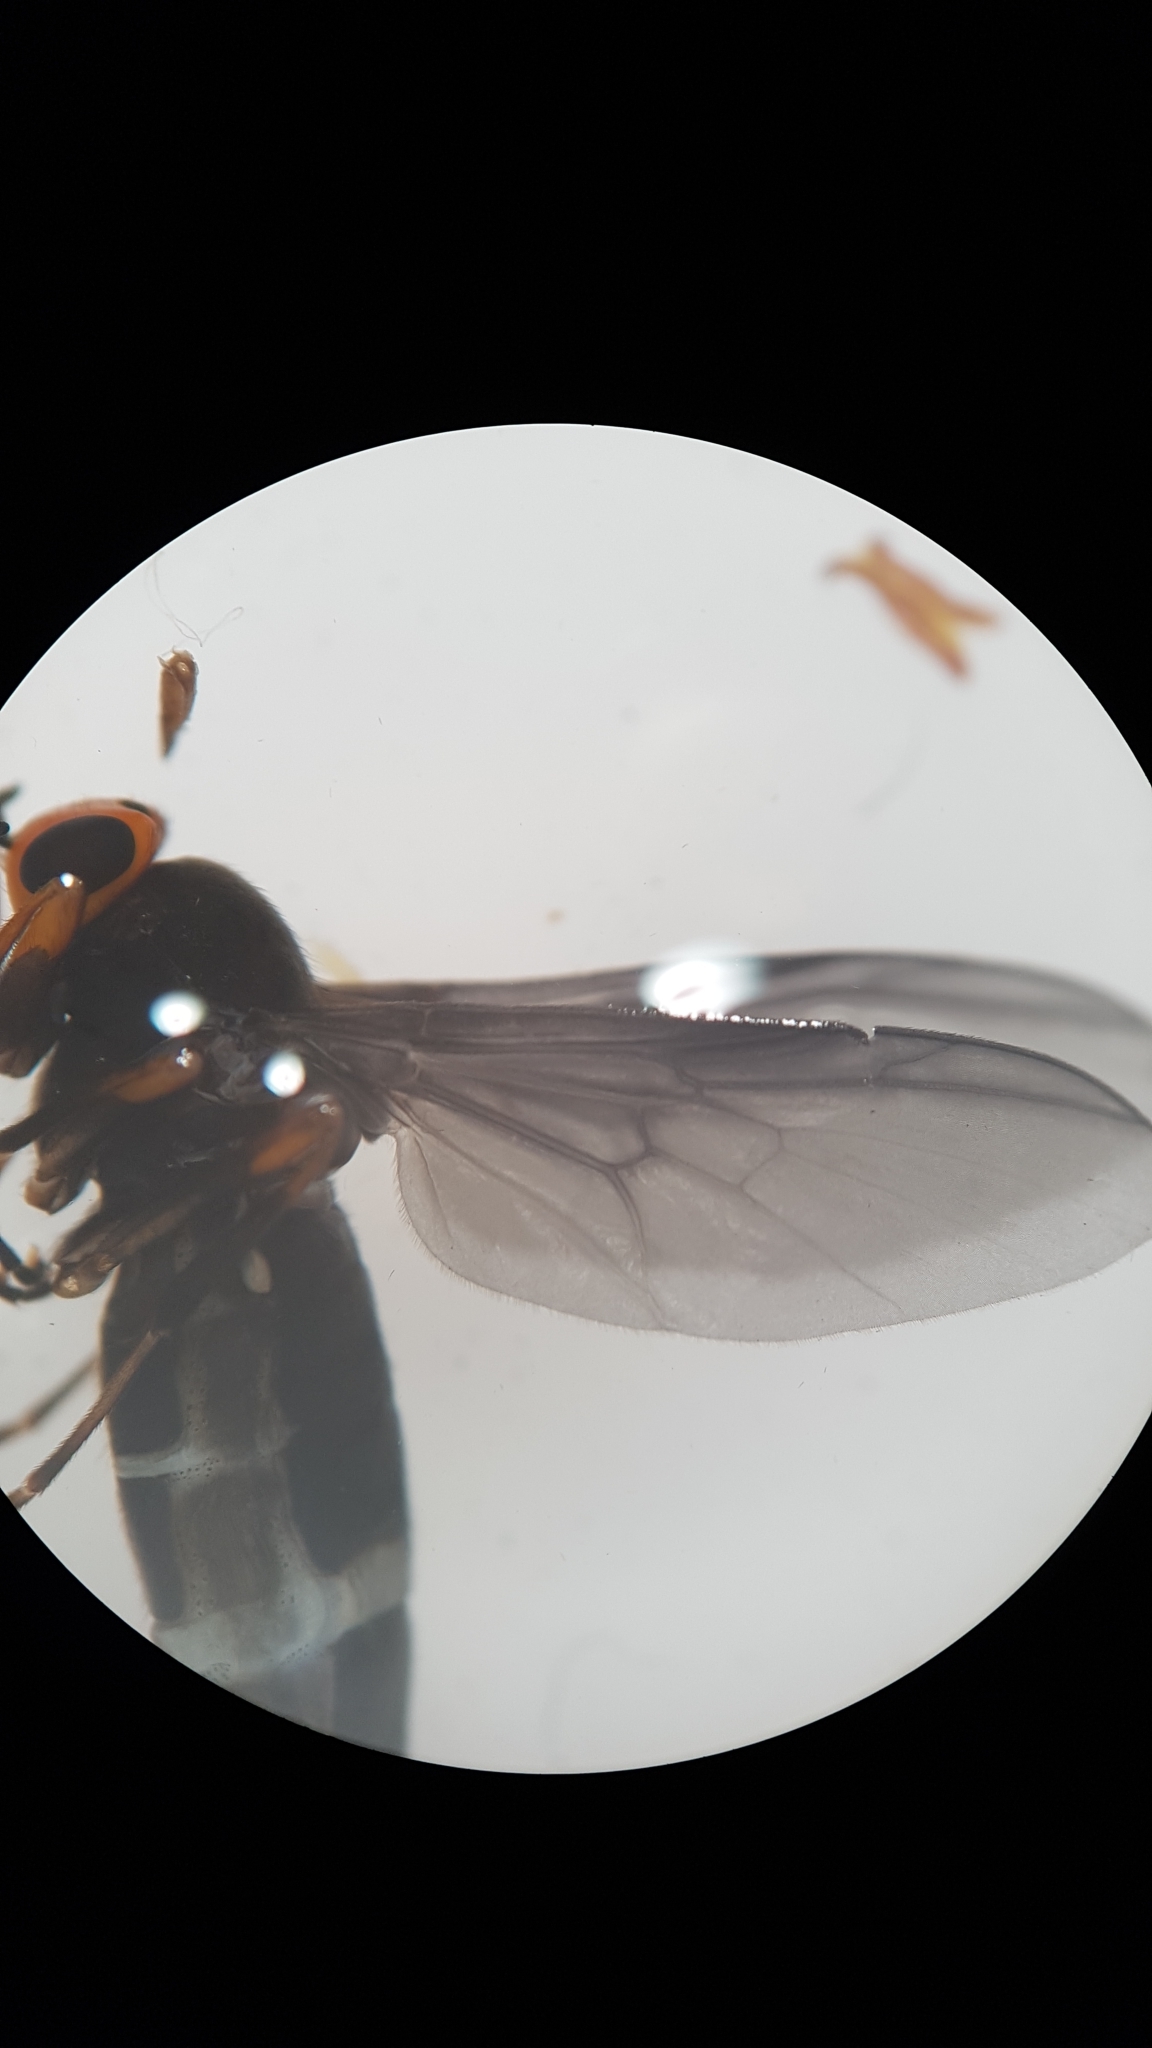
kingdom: Animalia
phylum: Arthropoda
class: Insecta
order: Diptera
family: Stratiomyidae
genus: Inopus
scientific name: Inopus rubriceps
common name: Soldier fly
